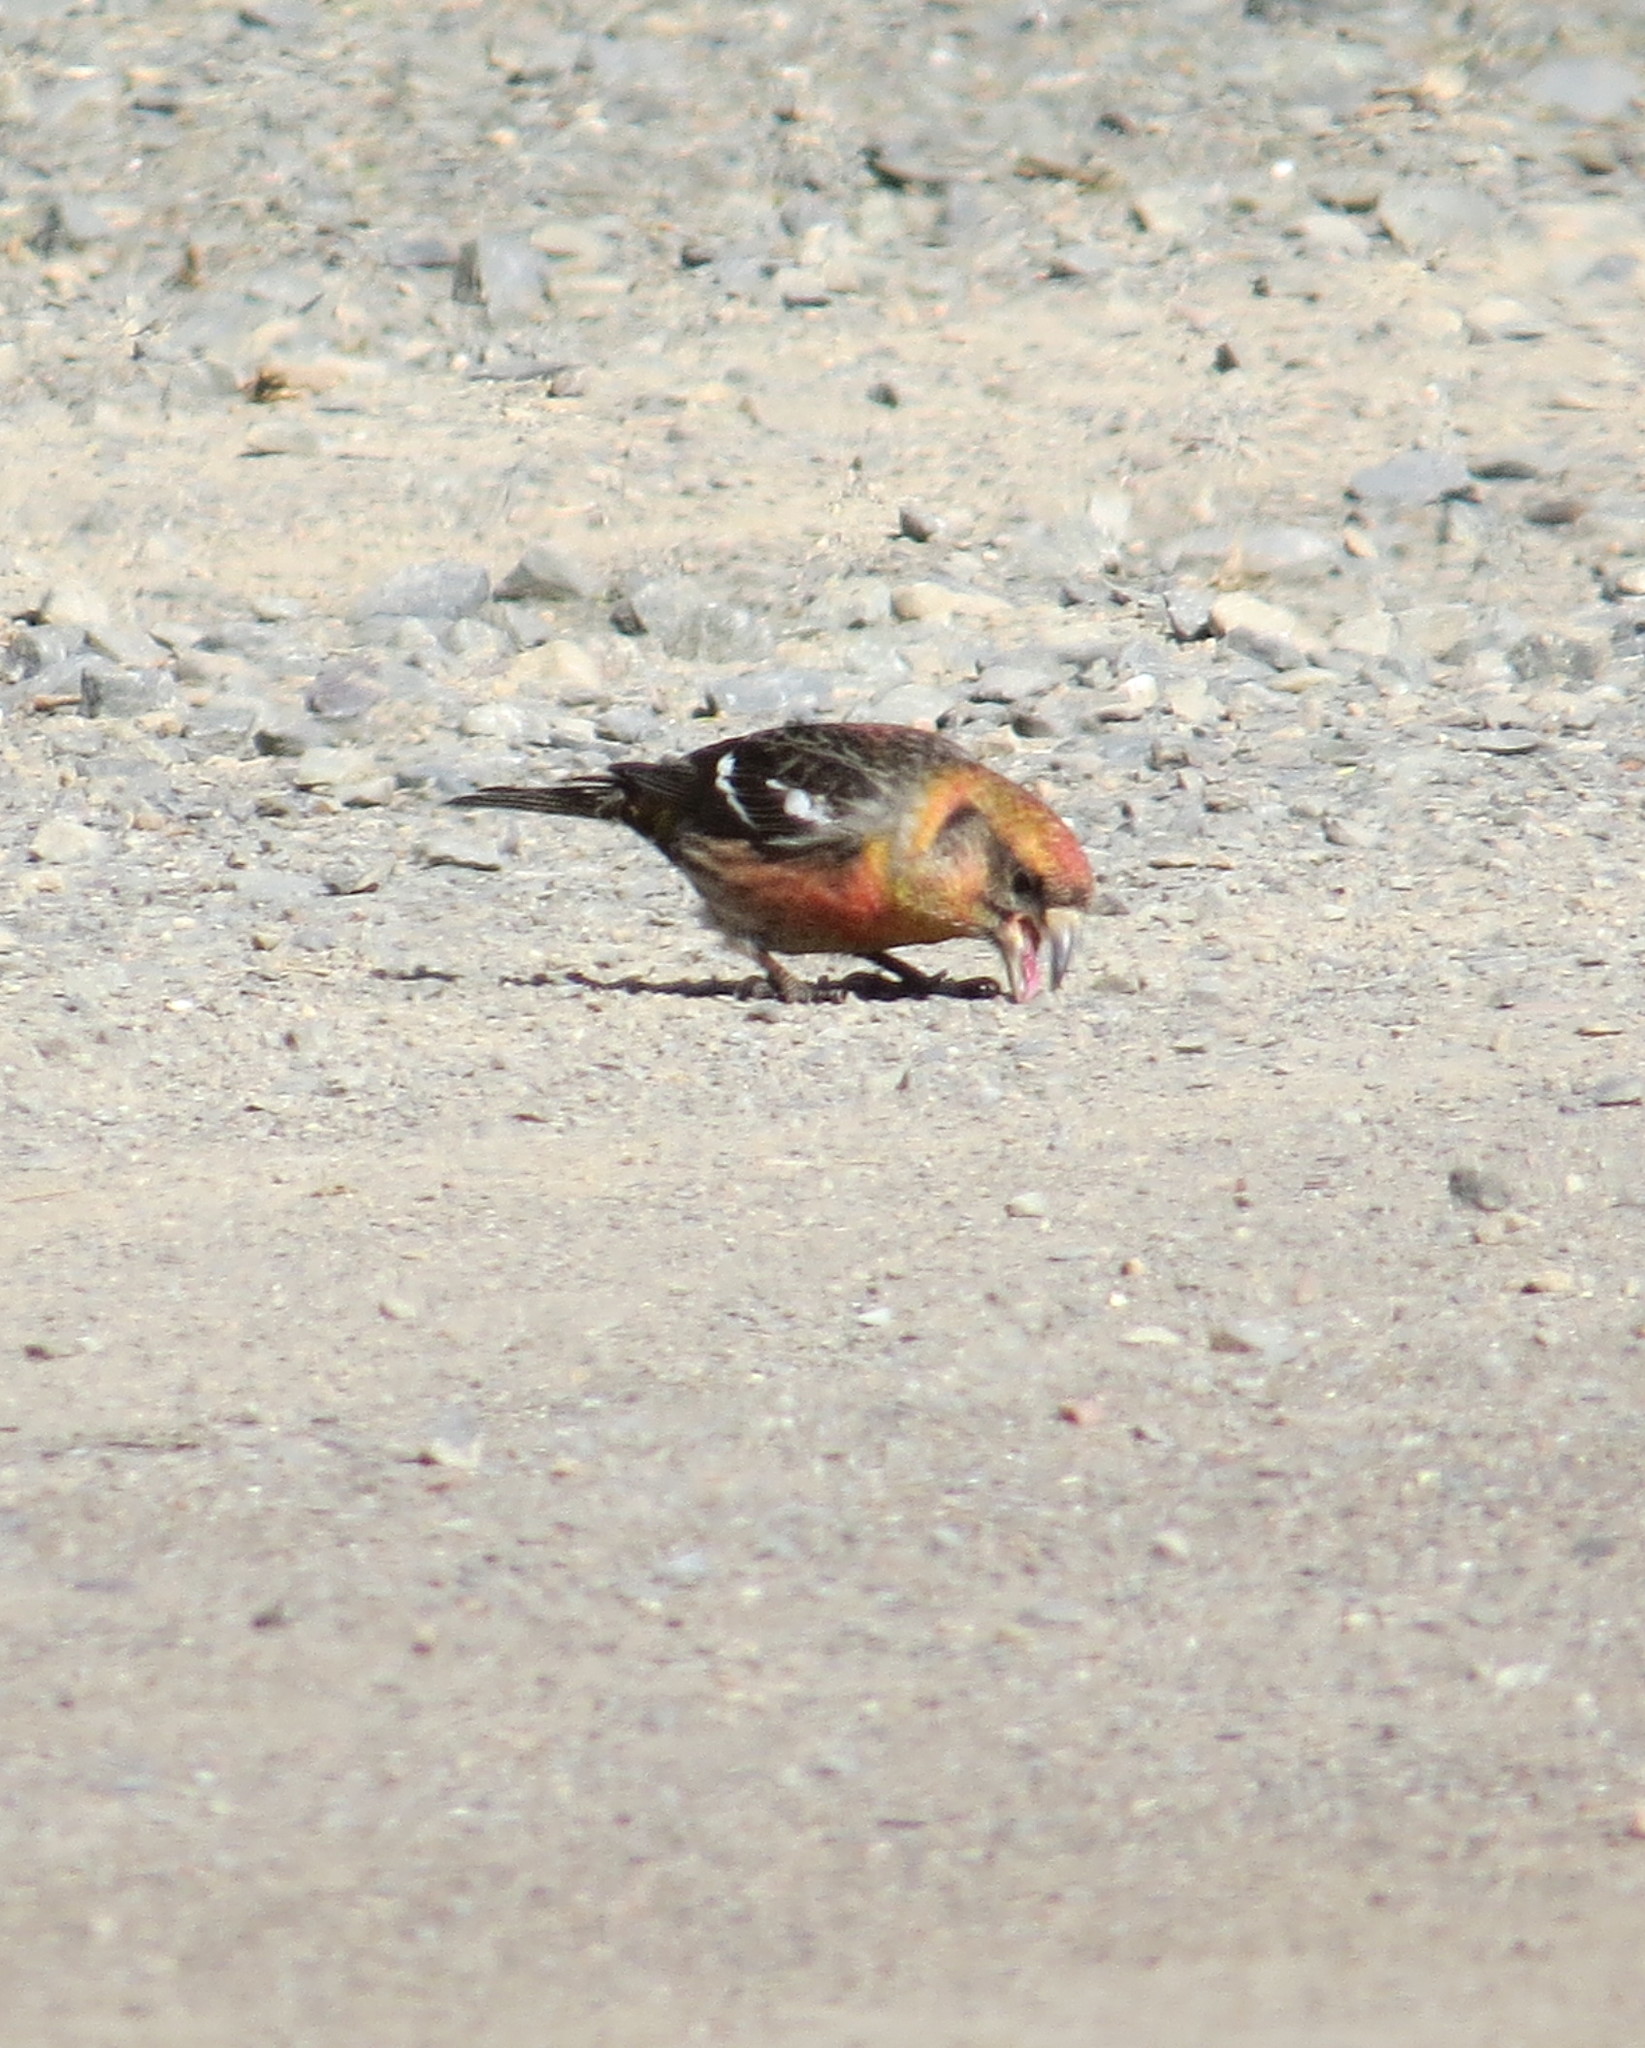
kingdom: Animalia
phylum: Chordata
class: Aves
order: Passeriformes
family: Fringillidae
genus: Loxia
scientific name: Loxia leucoptera
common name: Two-barred crossbill
